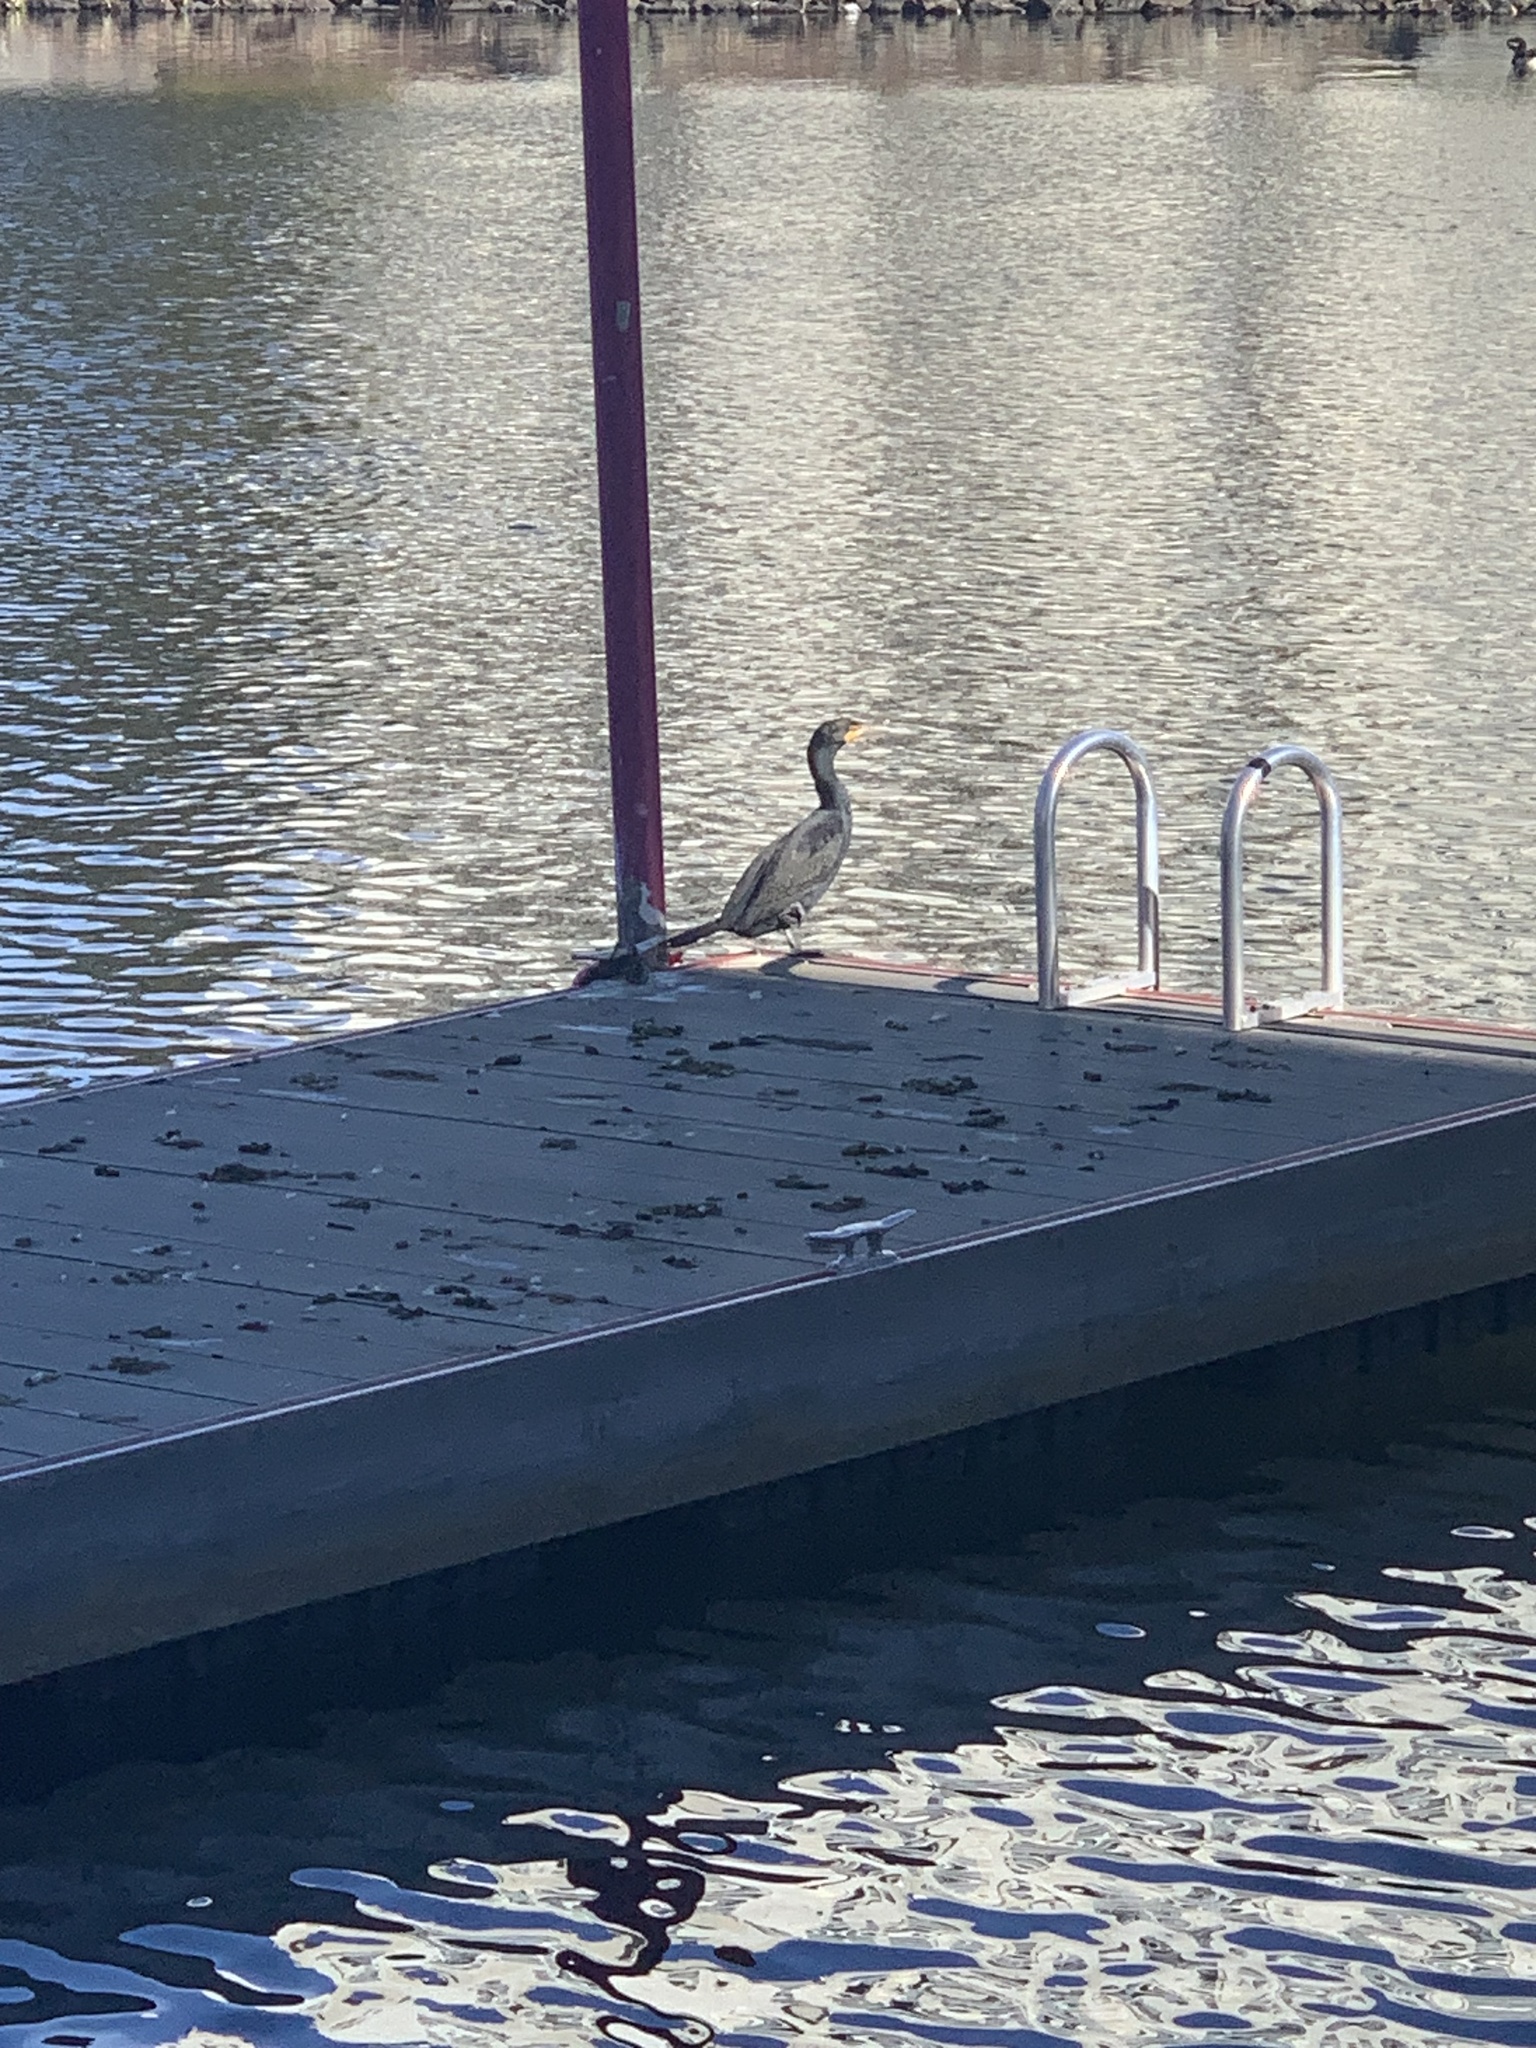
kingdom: Animalia
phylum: Chordata
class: Aves
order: Suliformes
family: Phalacrocoracidae
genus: Phalacrocorax
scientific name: Phalacrocorax auritus
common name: Double-crested cormorant
